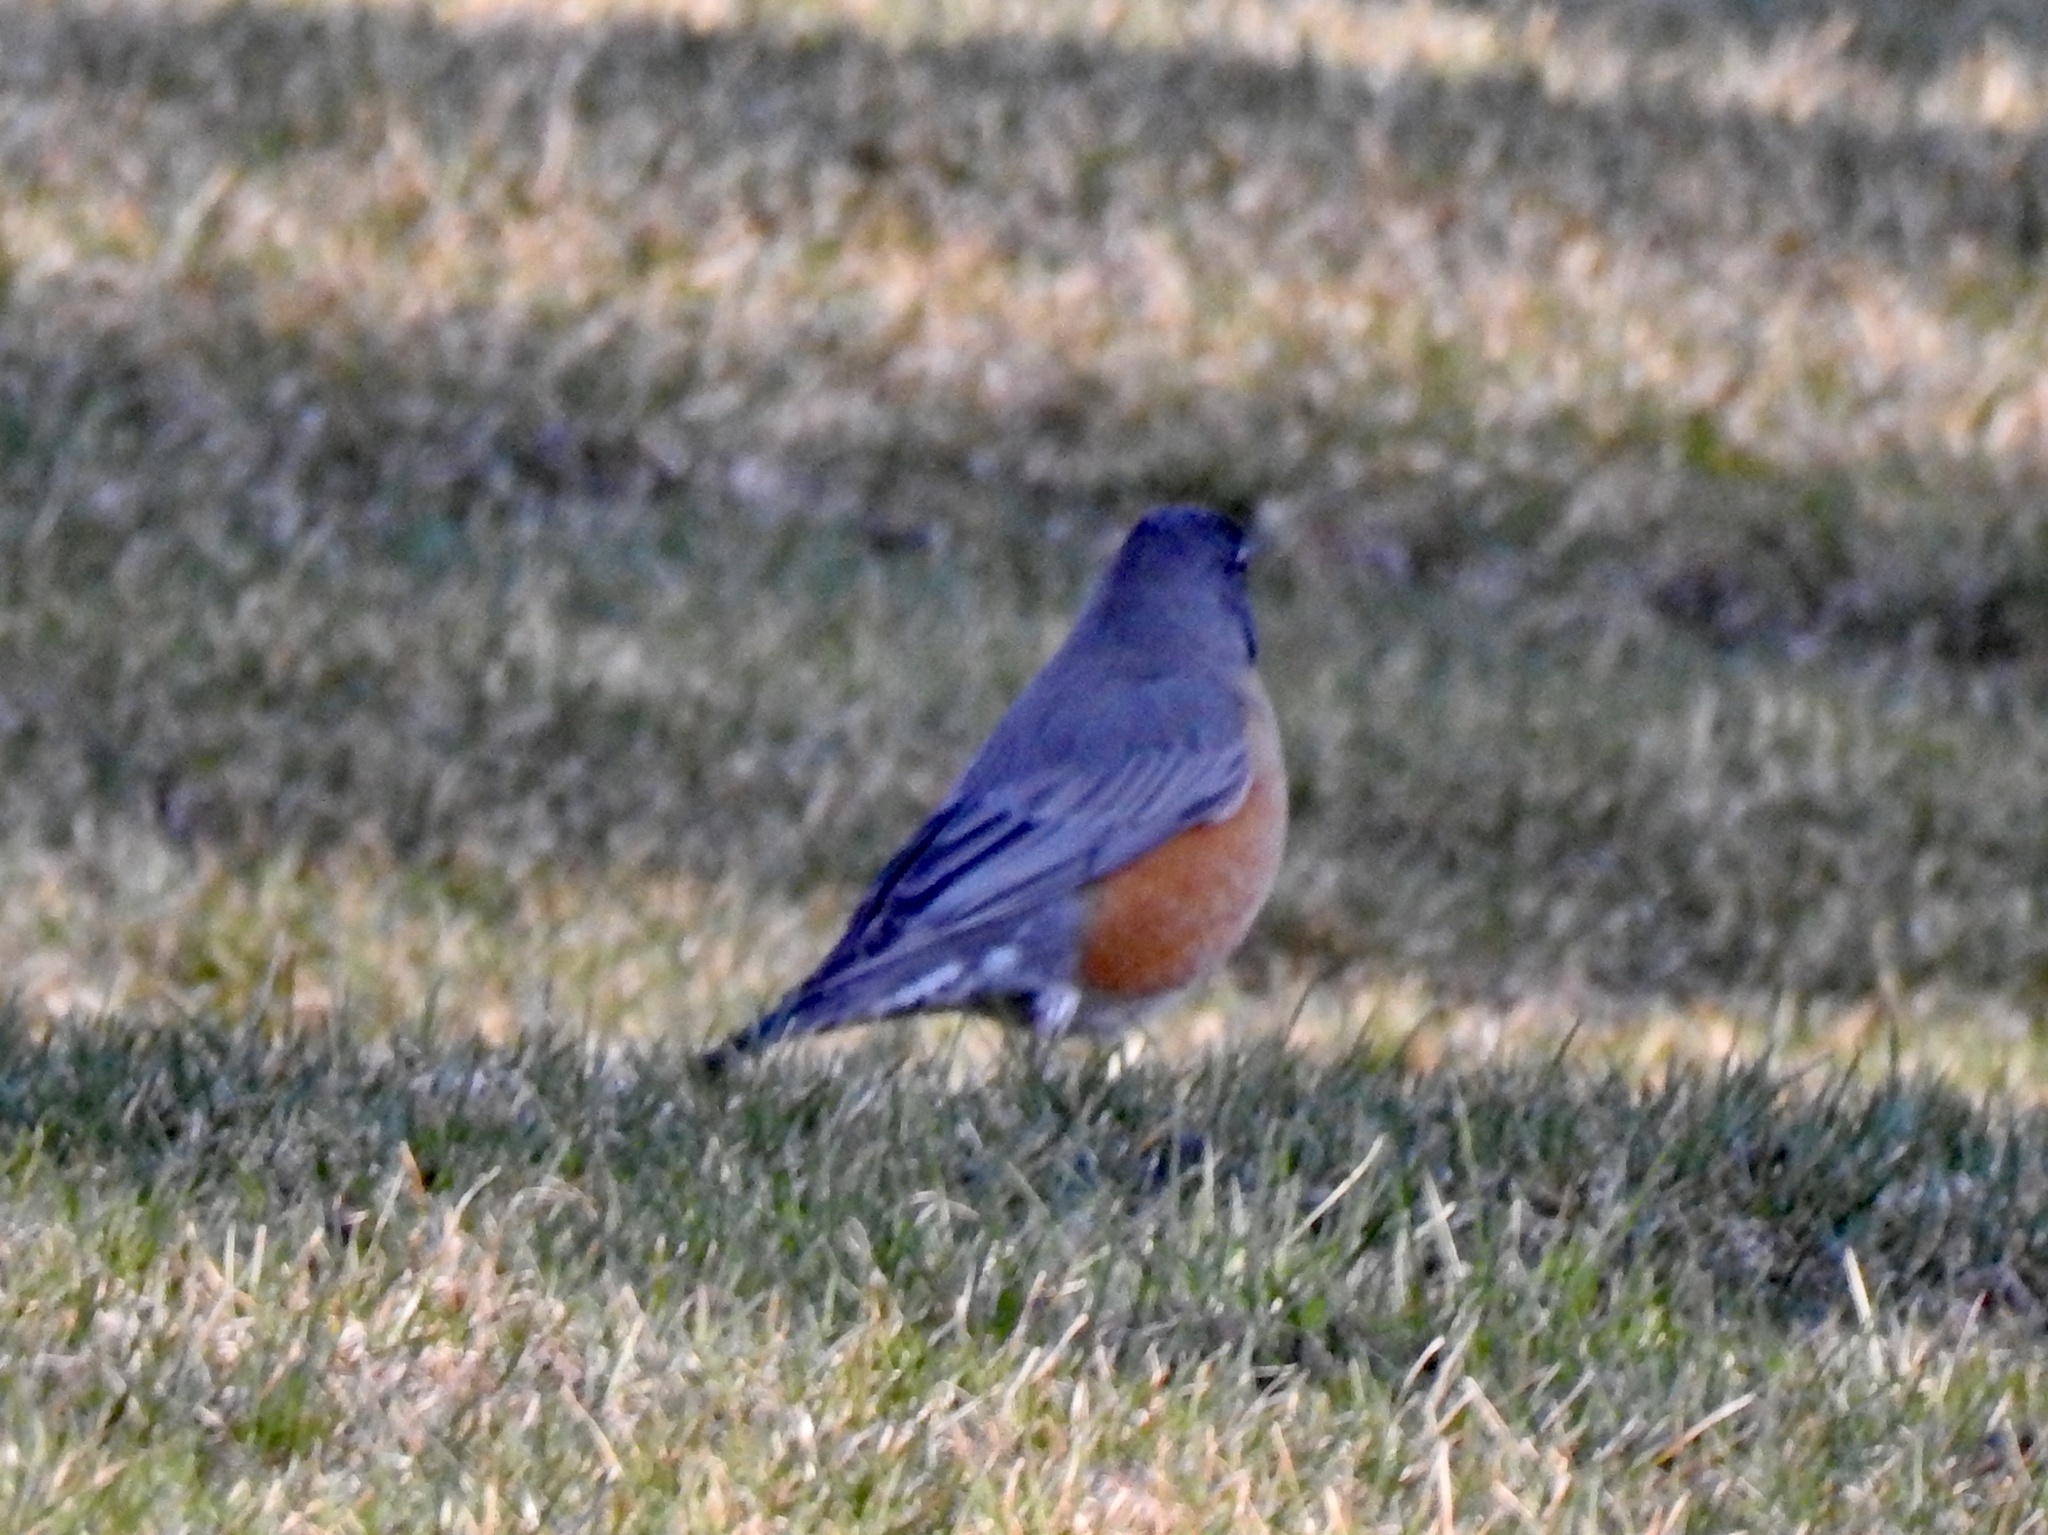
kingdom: Animalia
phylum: Chordata
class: Aves
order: Passeriformes
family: Turdidae
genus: Turdus
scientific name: Turdus migratorius
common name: American robin
